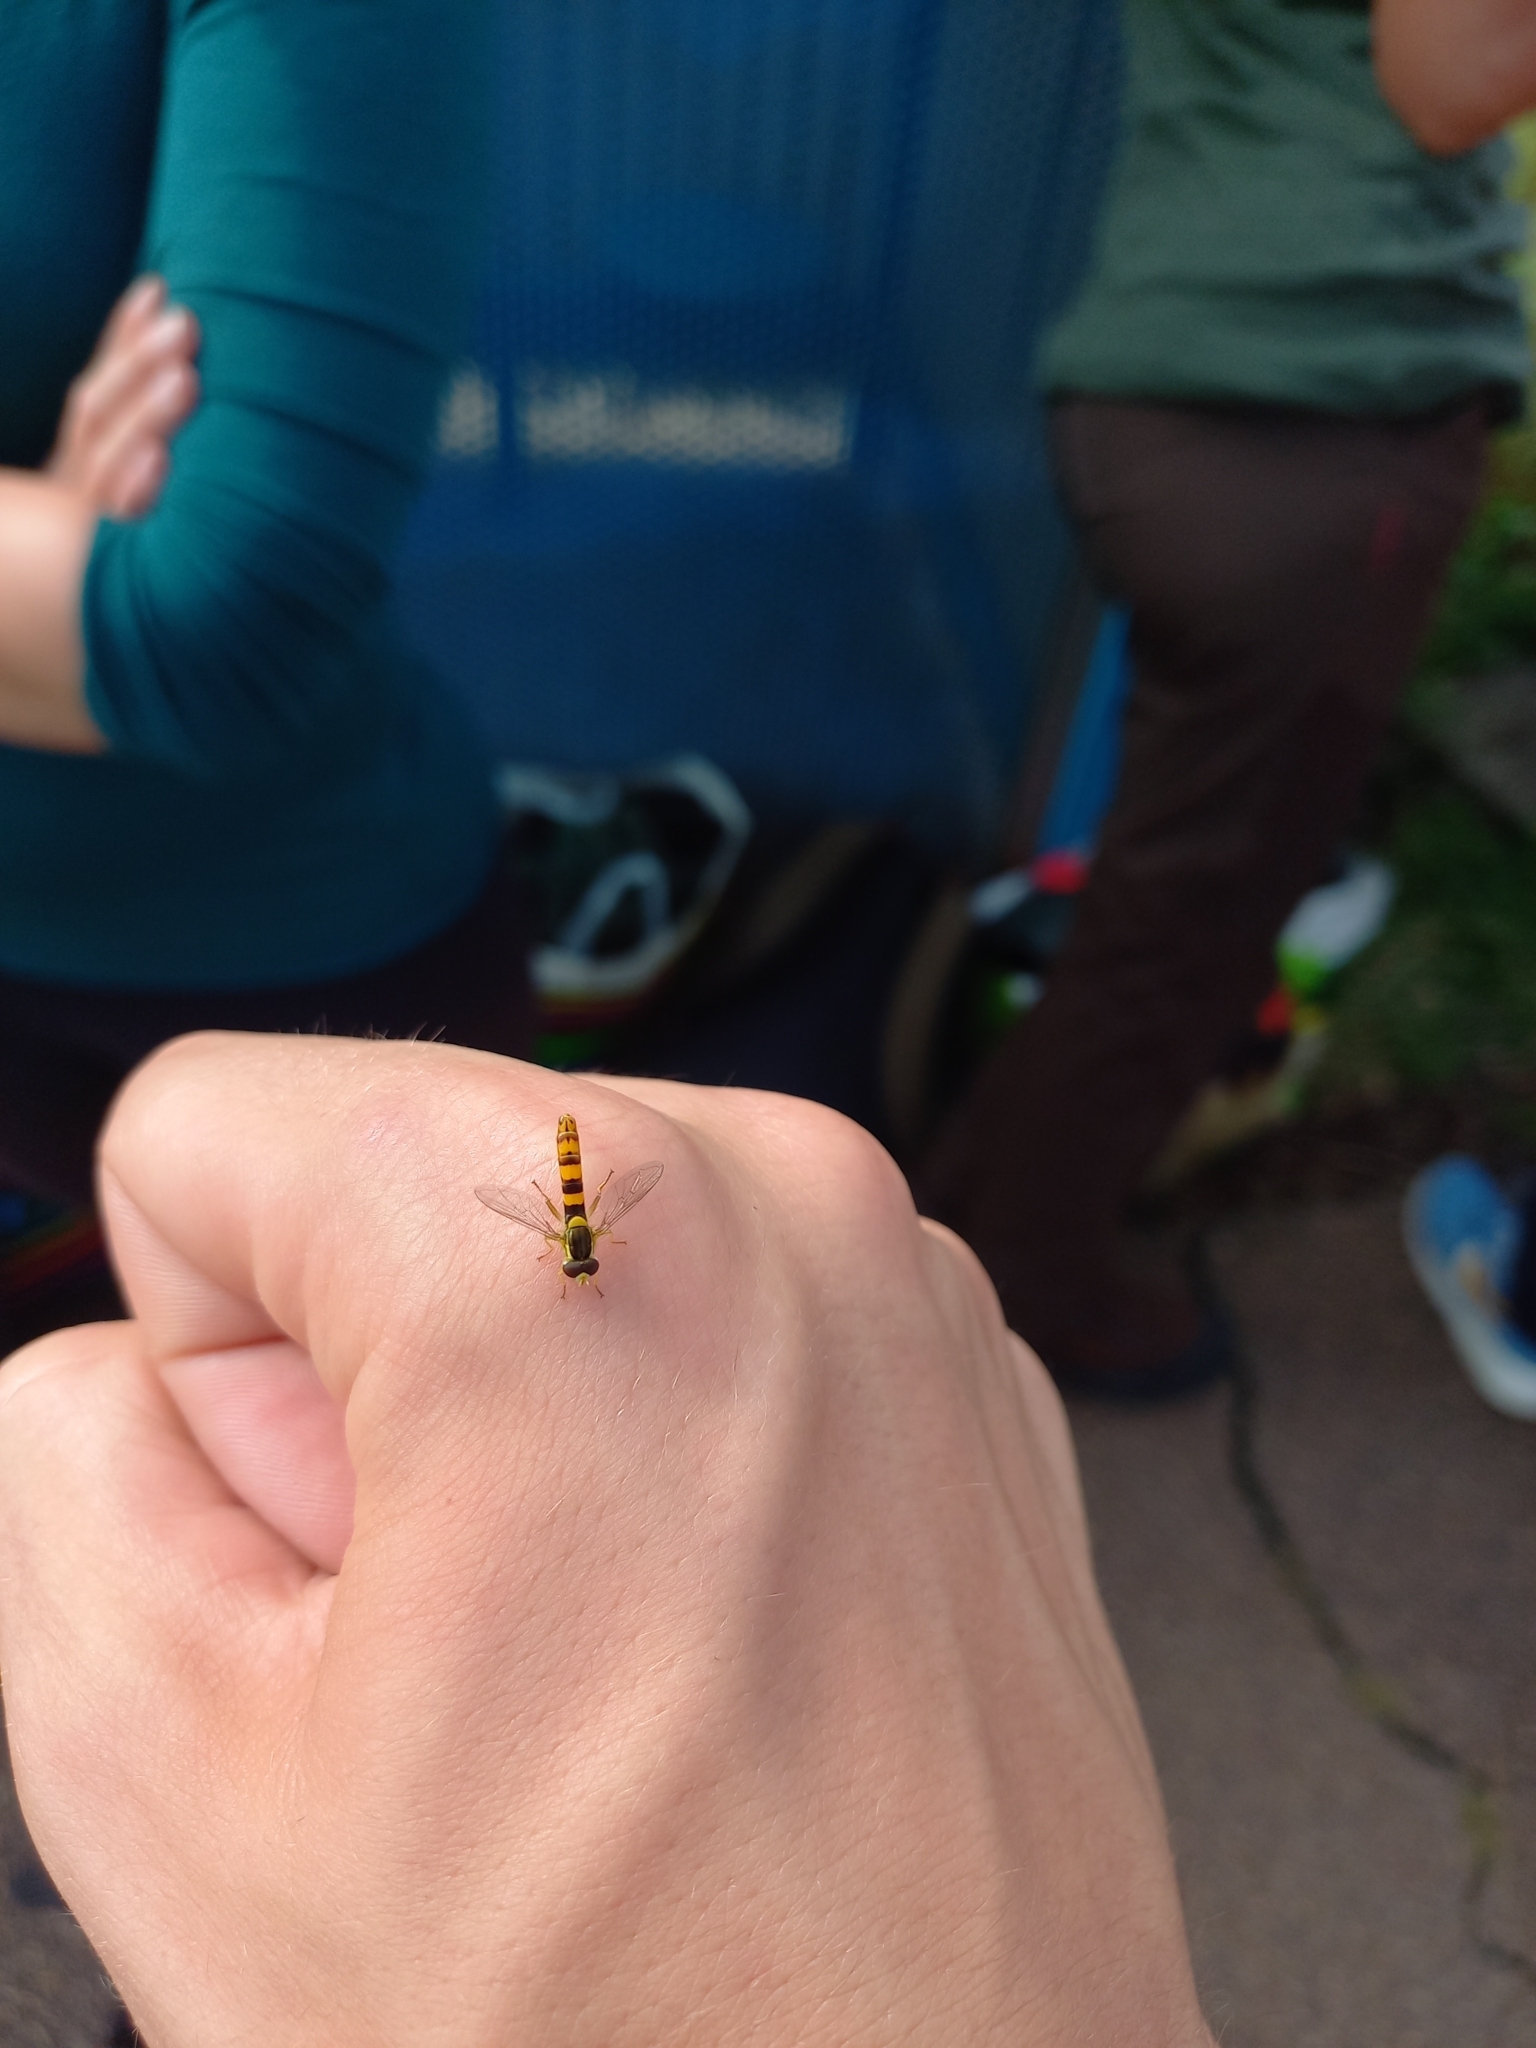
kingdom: Animalia
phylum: Arthropoda
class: Insecta
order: Diptera
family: Syrphidae
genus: Sphaerophoria
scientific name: Sphaerophoria scripta
